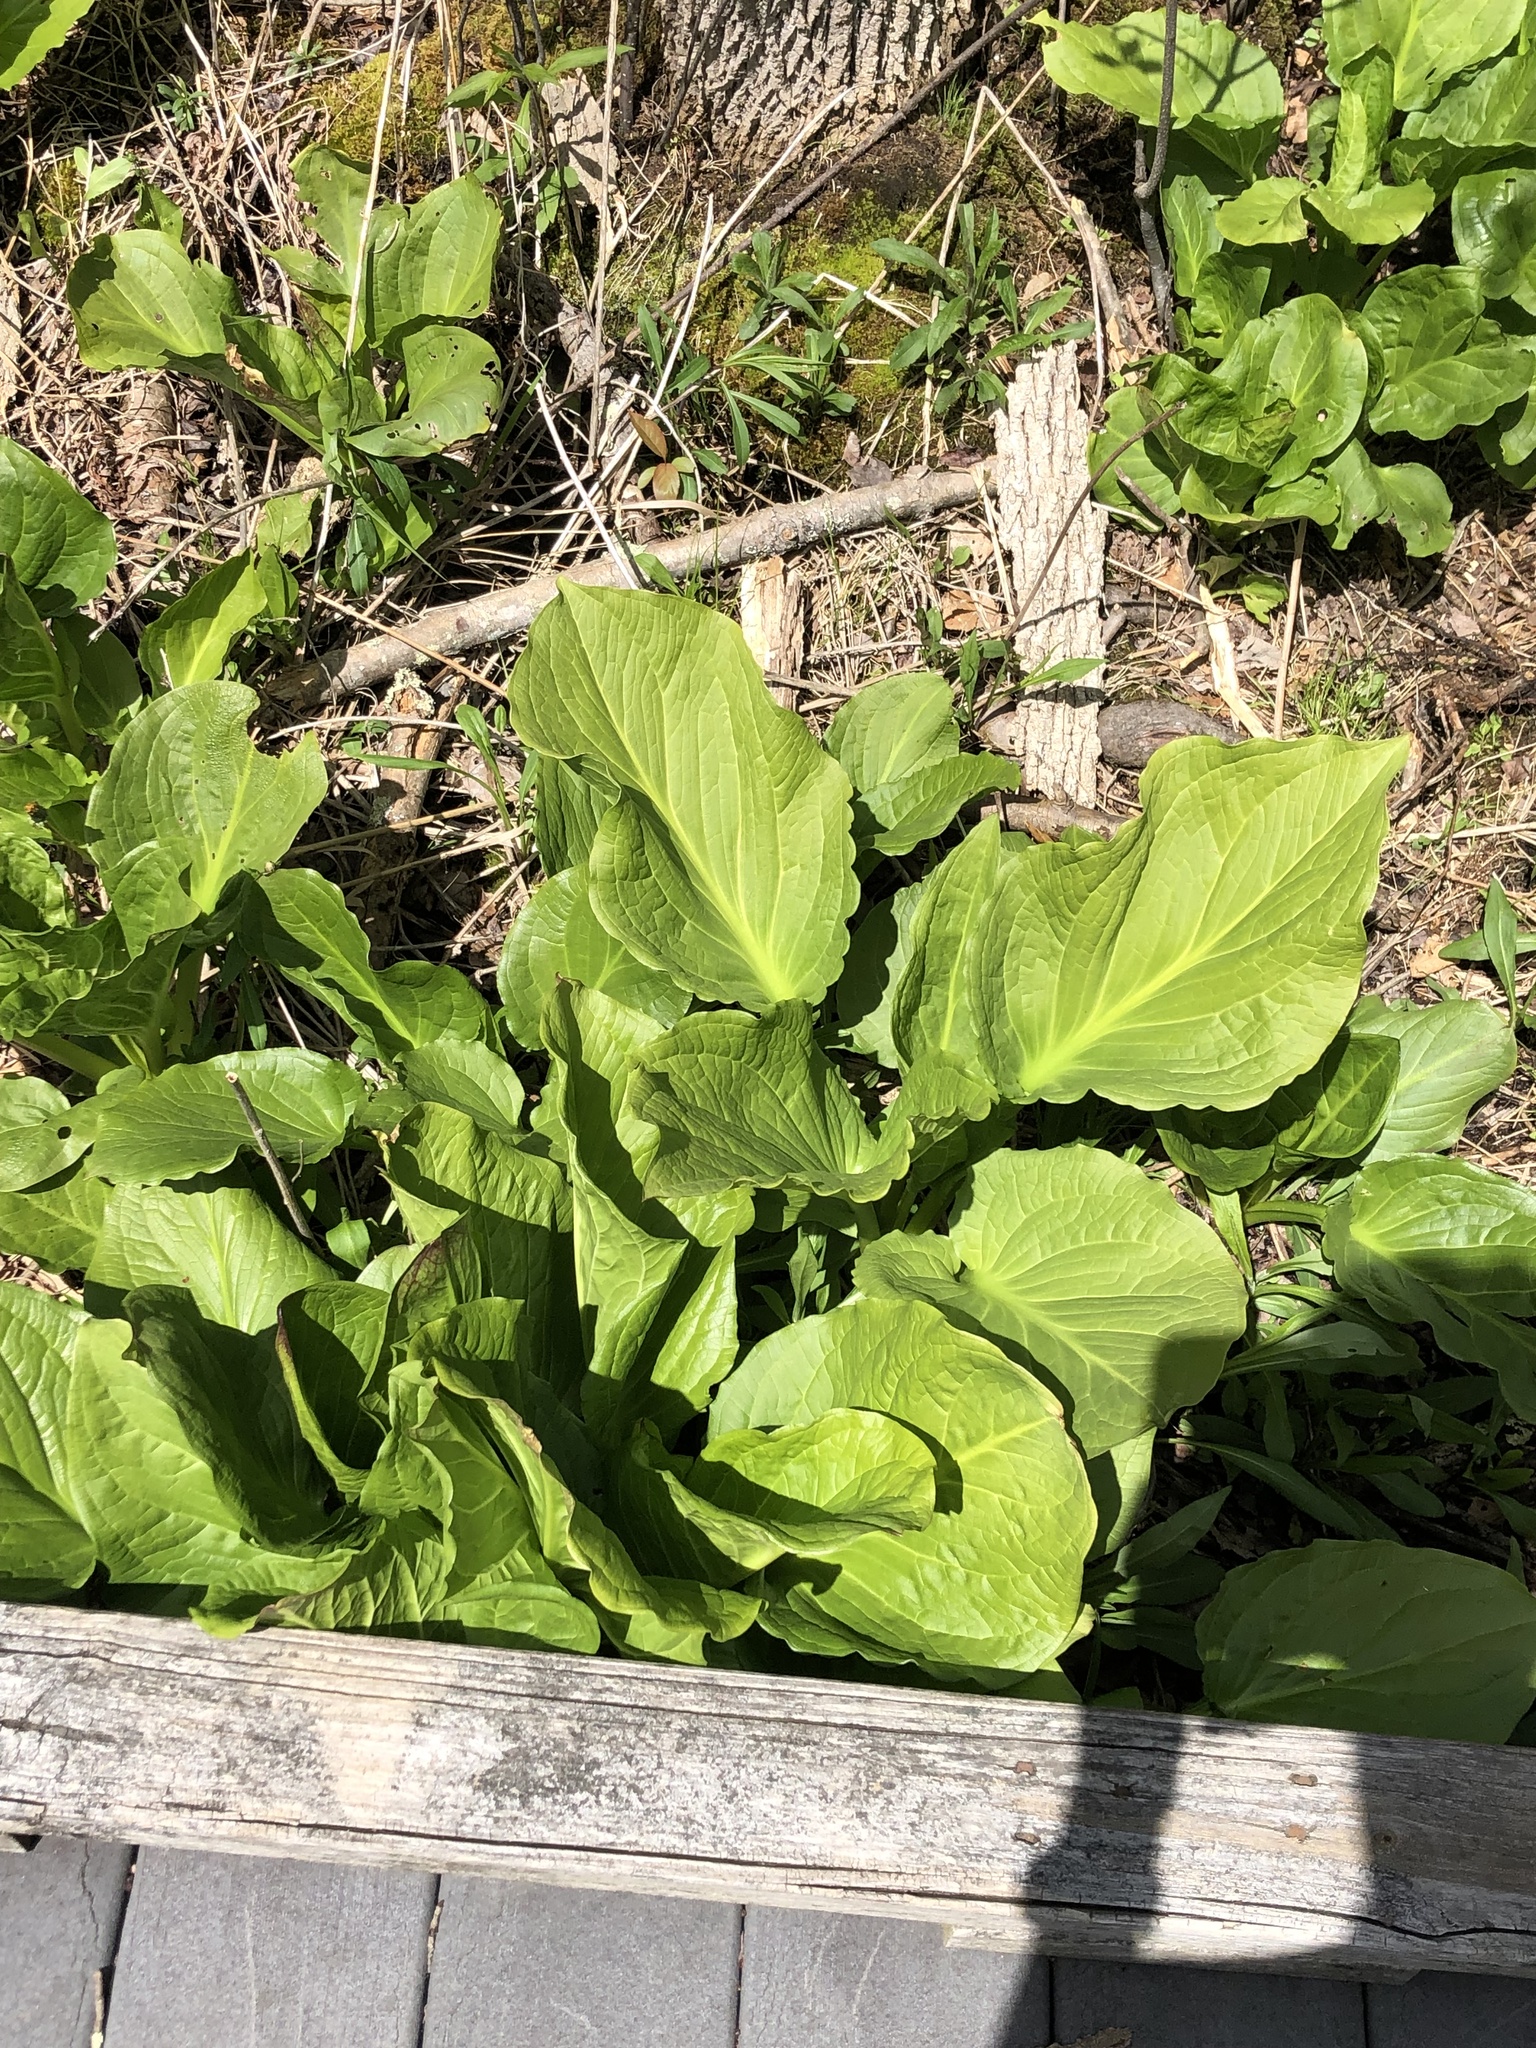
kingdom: Plantae
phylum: Tracheophyta
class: Liliopsida
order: Alismatales
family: Araceae
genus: Symplocarpus
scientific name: Symplocarpus foetidus
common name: Eastern skunk cabbage
